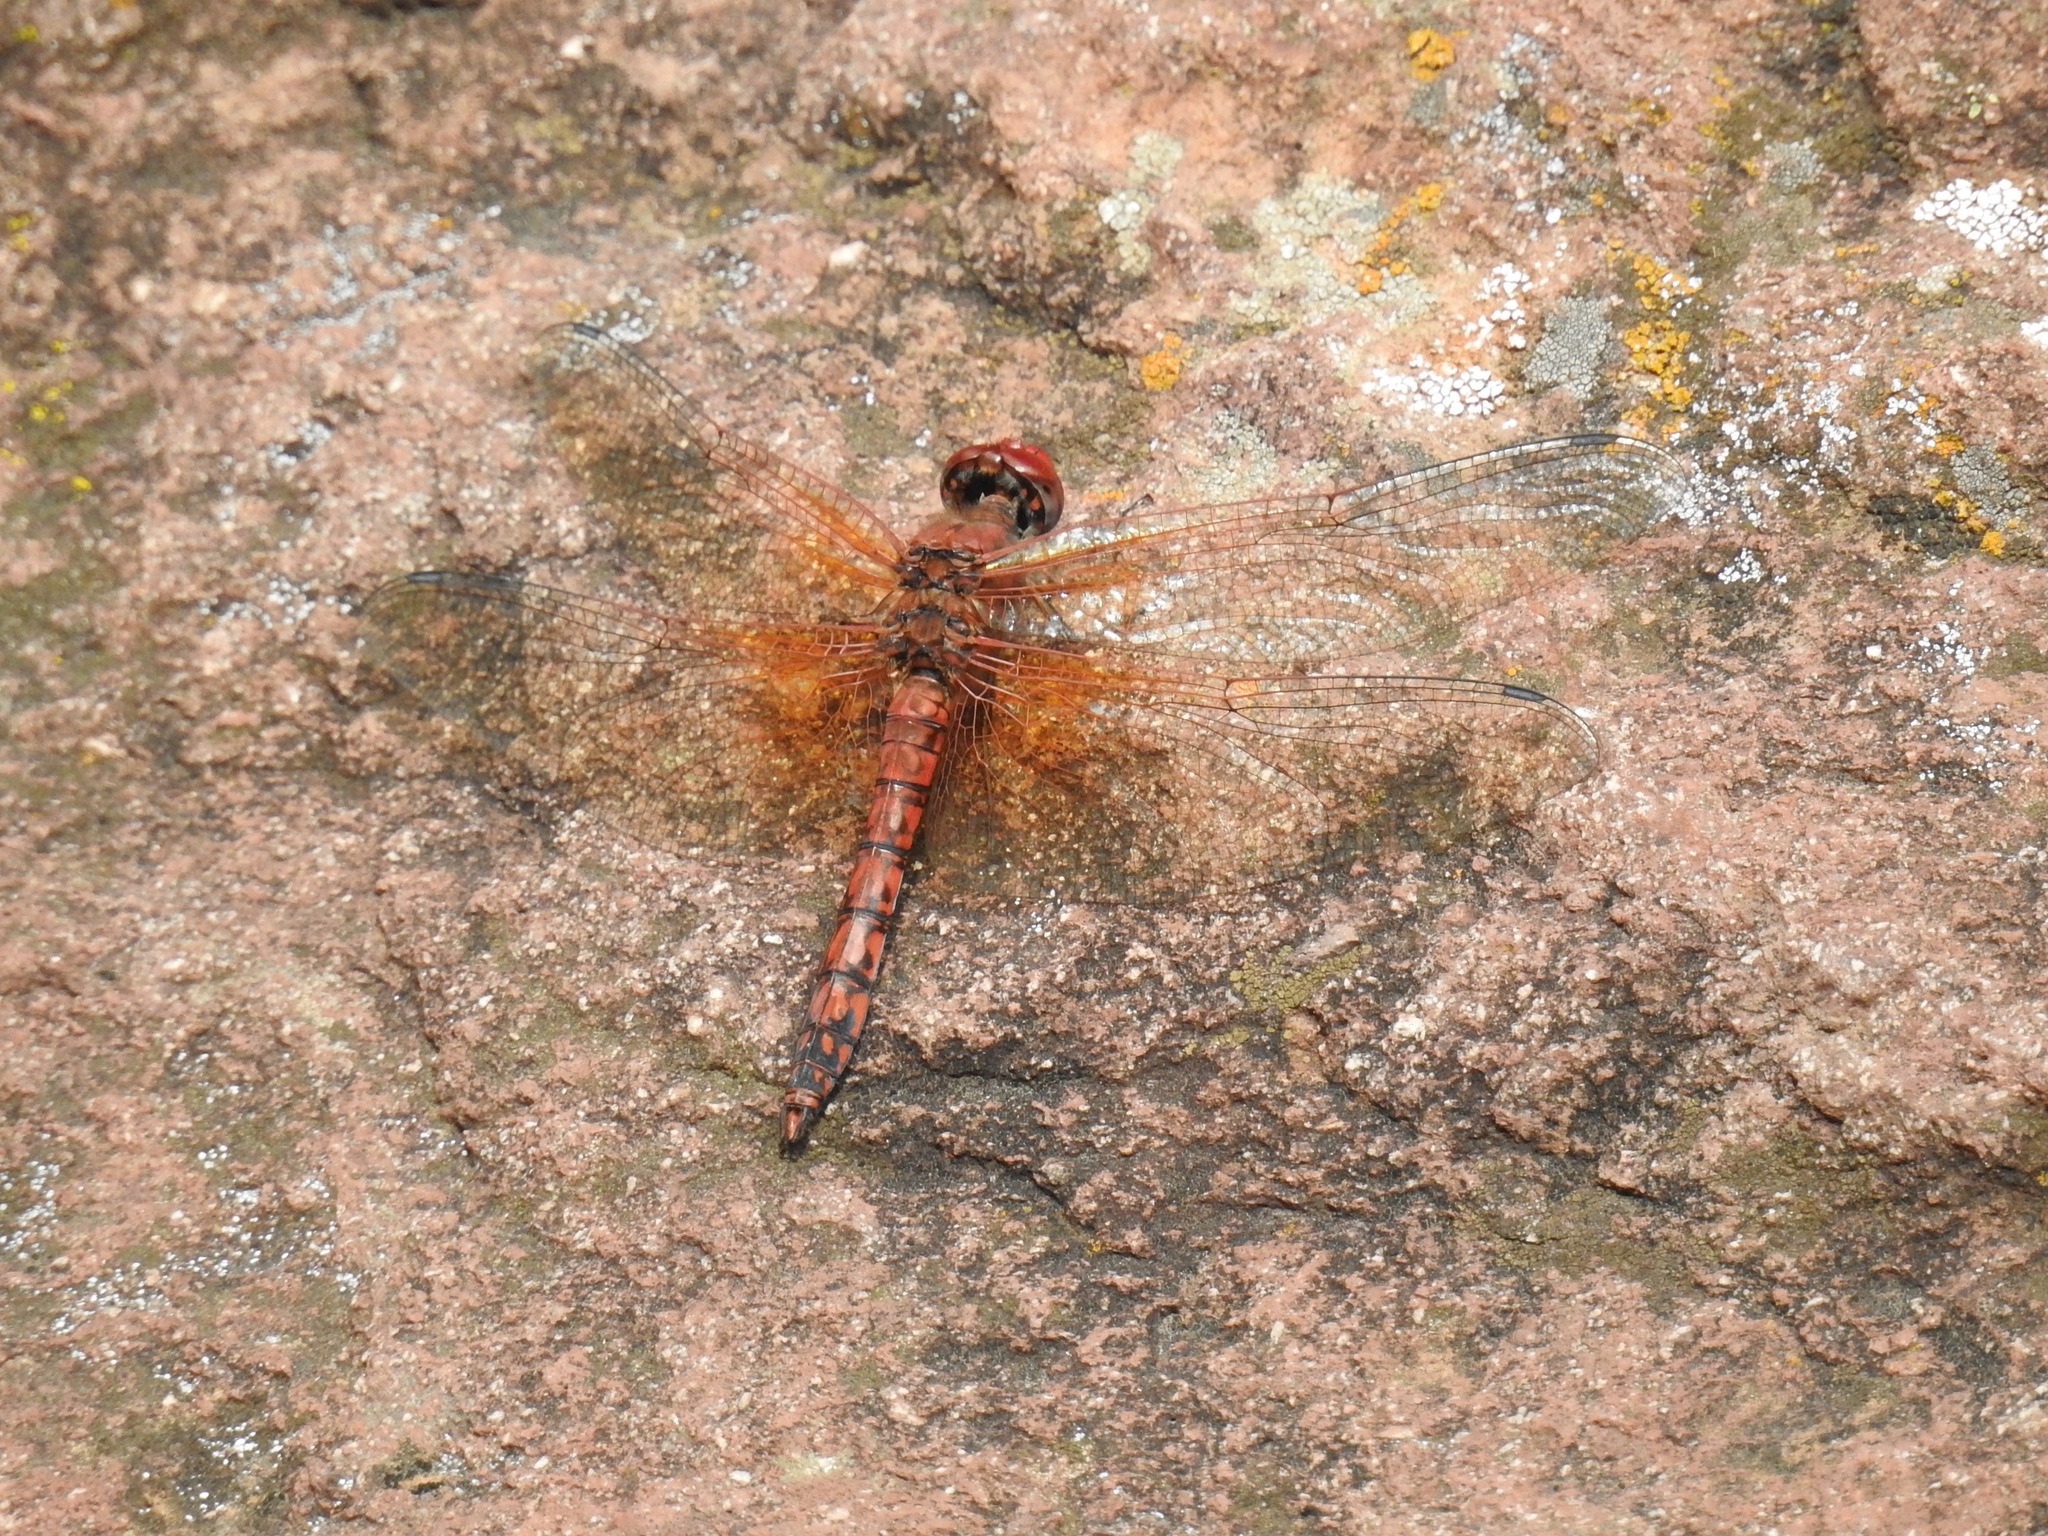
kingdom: Animalia
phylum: Arthropoda
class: Insecta
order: Odonata
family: Libellulidae
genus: Paltothemis
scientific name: Paltothemis lineatipes
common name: Red rock skimmer
